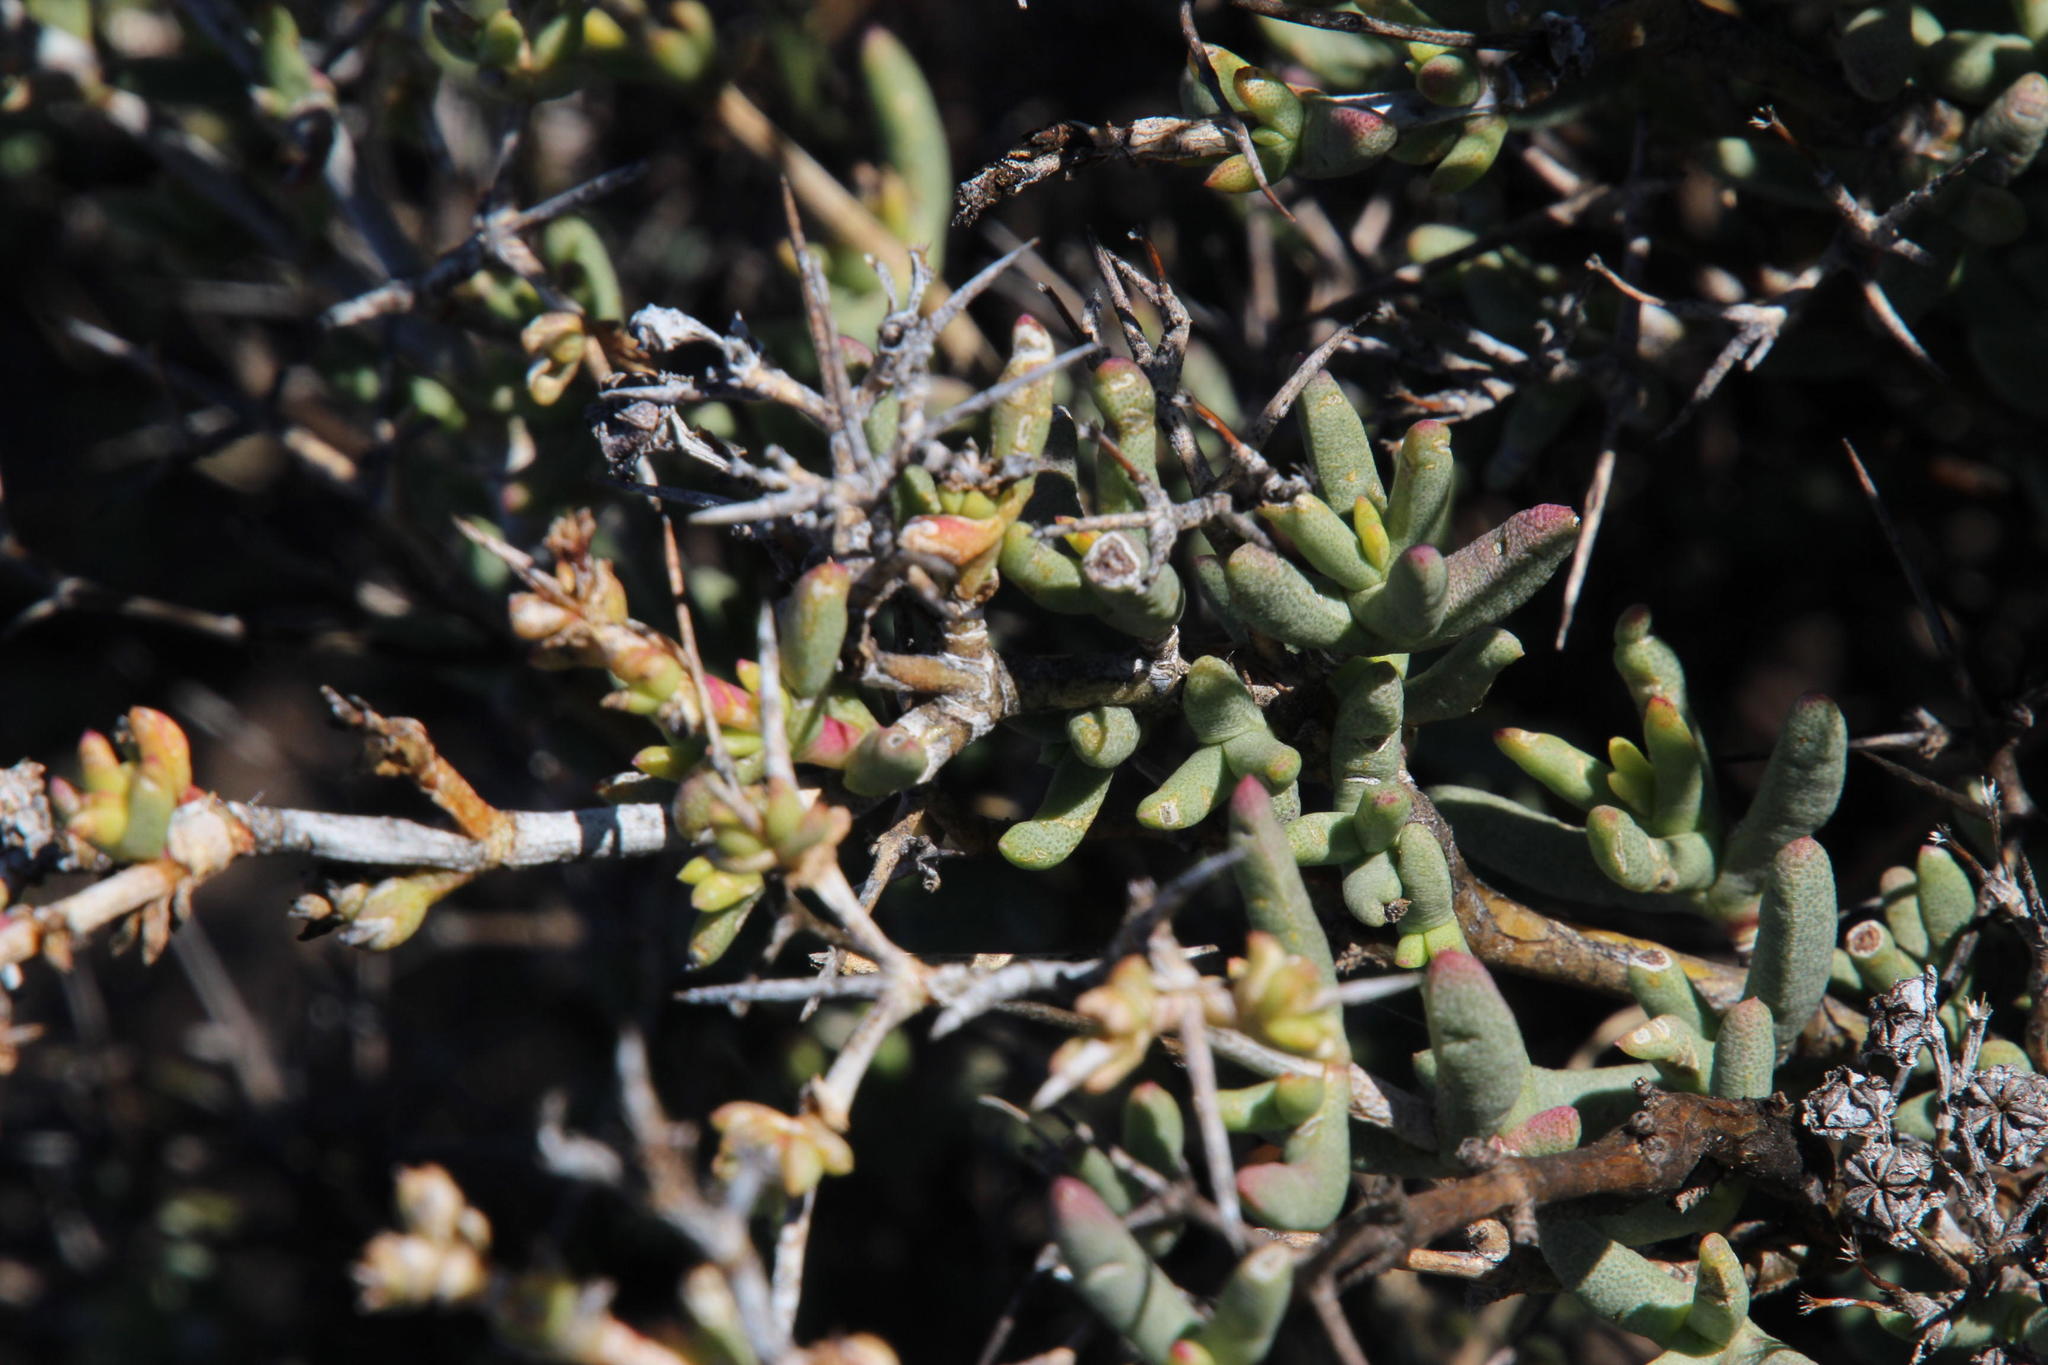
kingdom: Plantae
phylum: Tracheophyta
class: Magnoliopsida
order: Caryophyllales
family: Aizoaceae
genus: Ruschia
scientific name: Ruschia intricata
